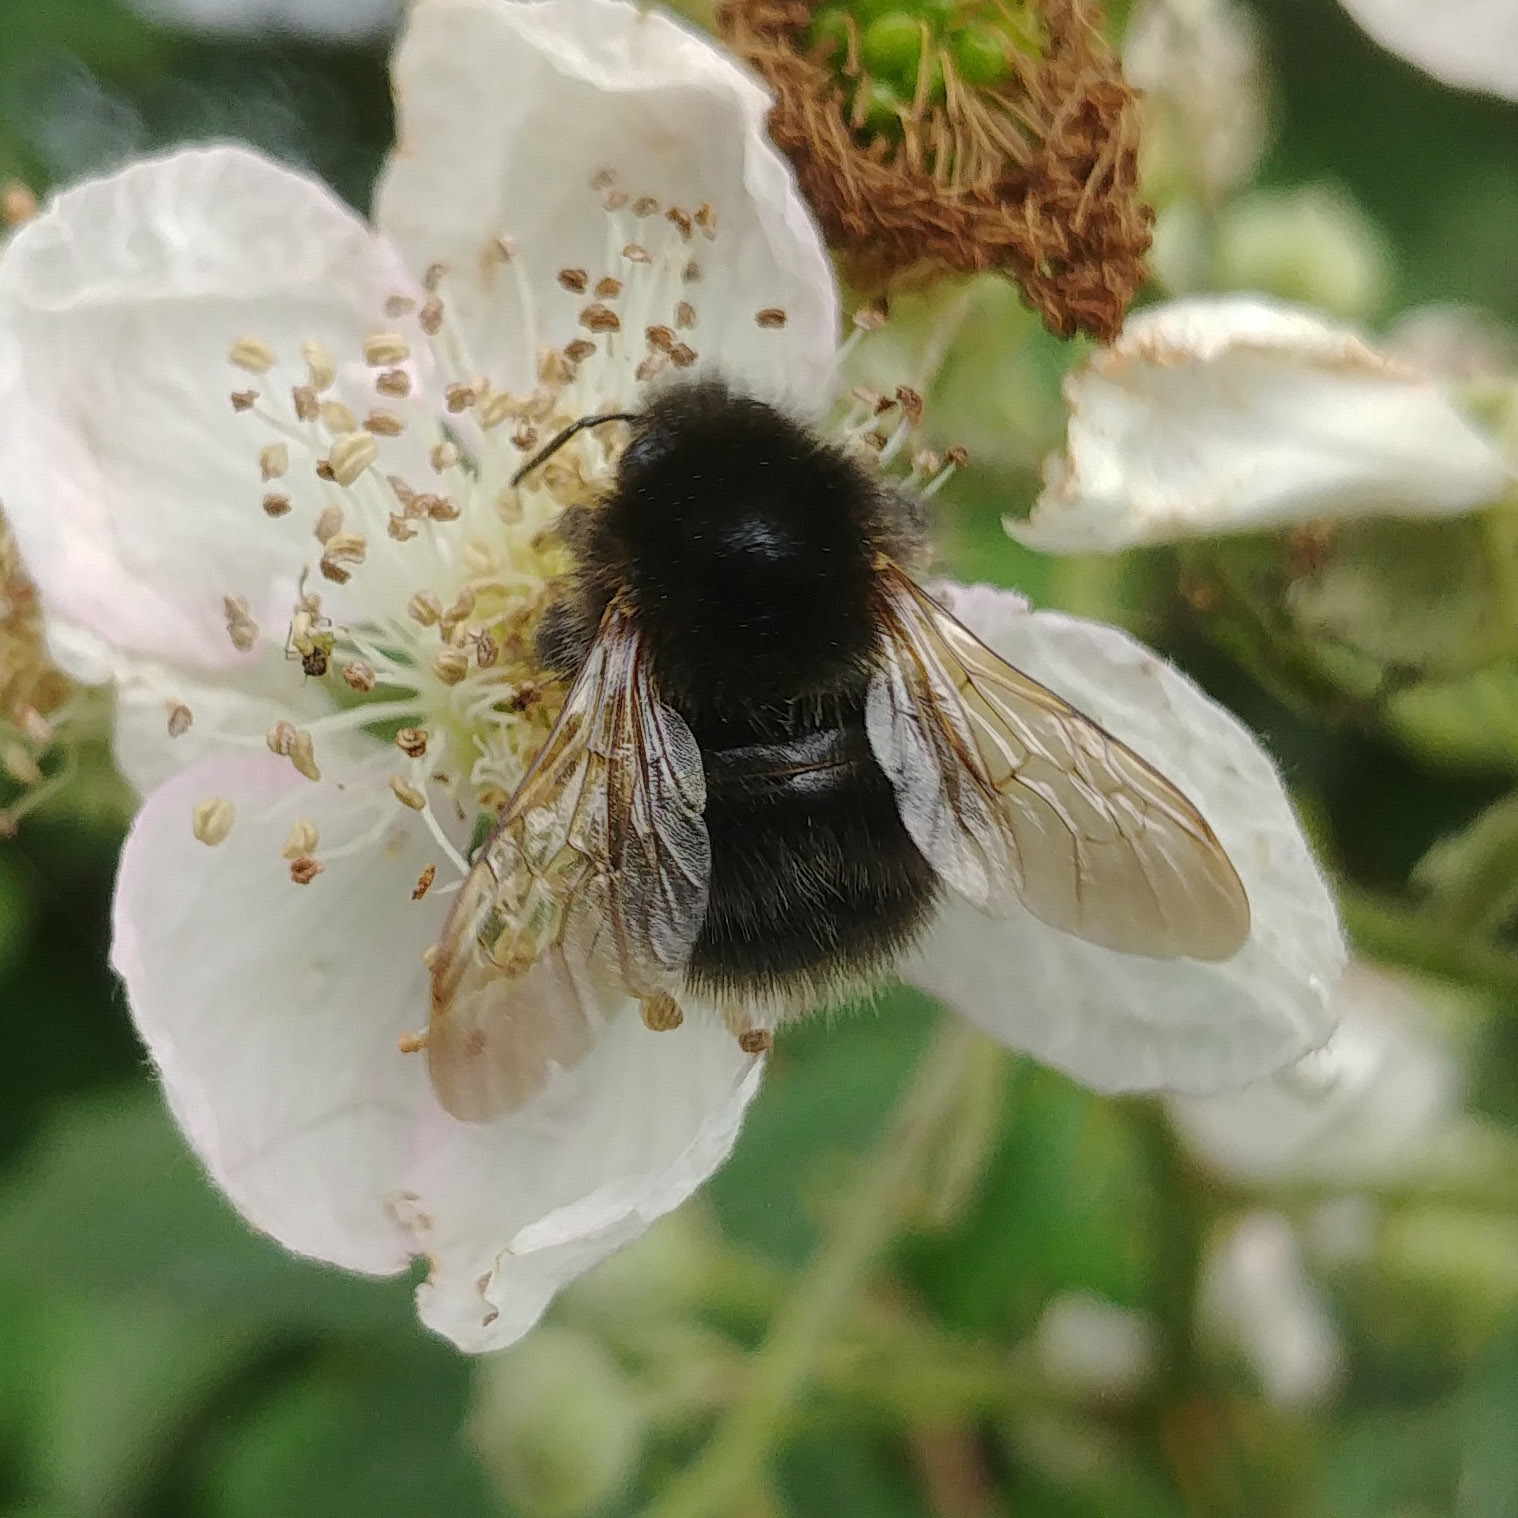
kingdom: Animalia
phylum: Arthropoda
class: Insecta
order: Hymenoptera
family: Apidae
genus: Bombus
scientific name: Bombus hypnorum
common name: New garden bumblebee
